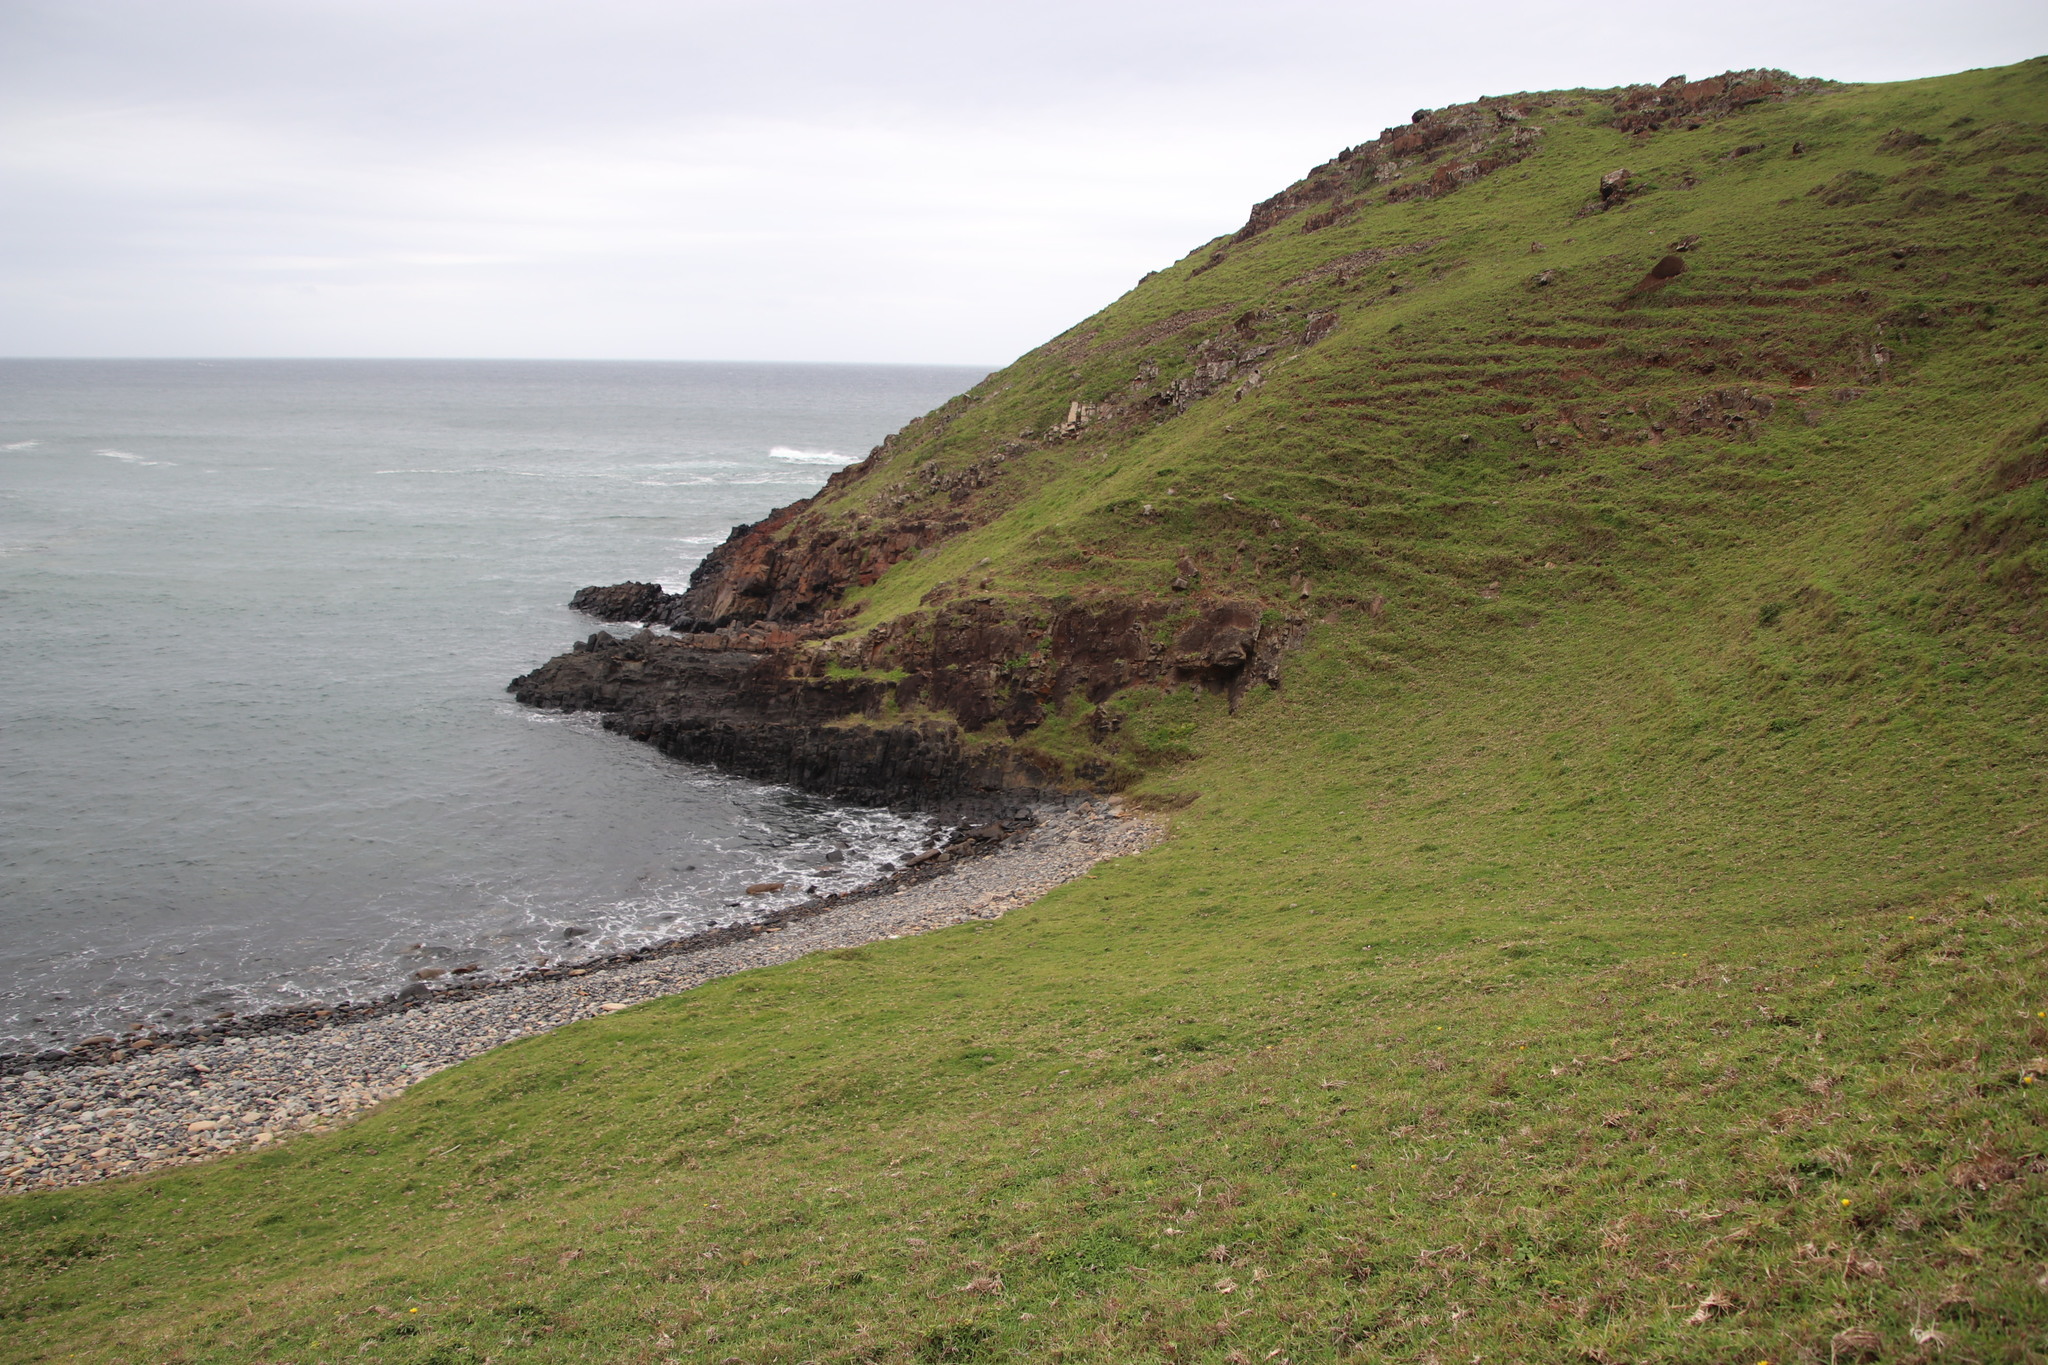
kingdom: Plantae
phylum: Tracheophyta
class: Liliopsida
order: Poales
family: Poaceae
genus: Stenotaphrum
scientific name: Stenotaphrum secundatum
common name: St. augustine grass
